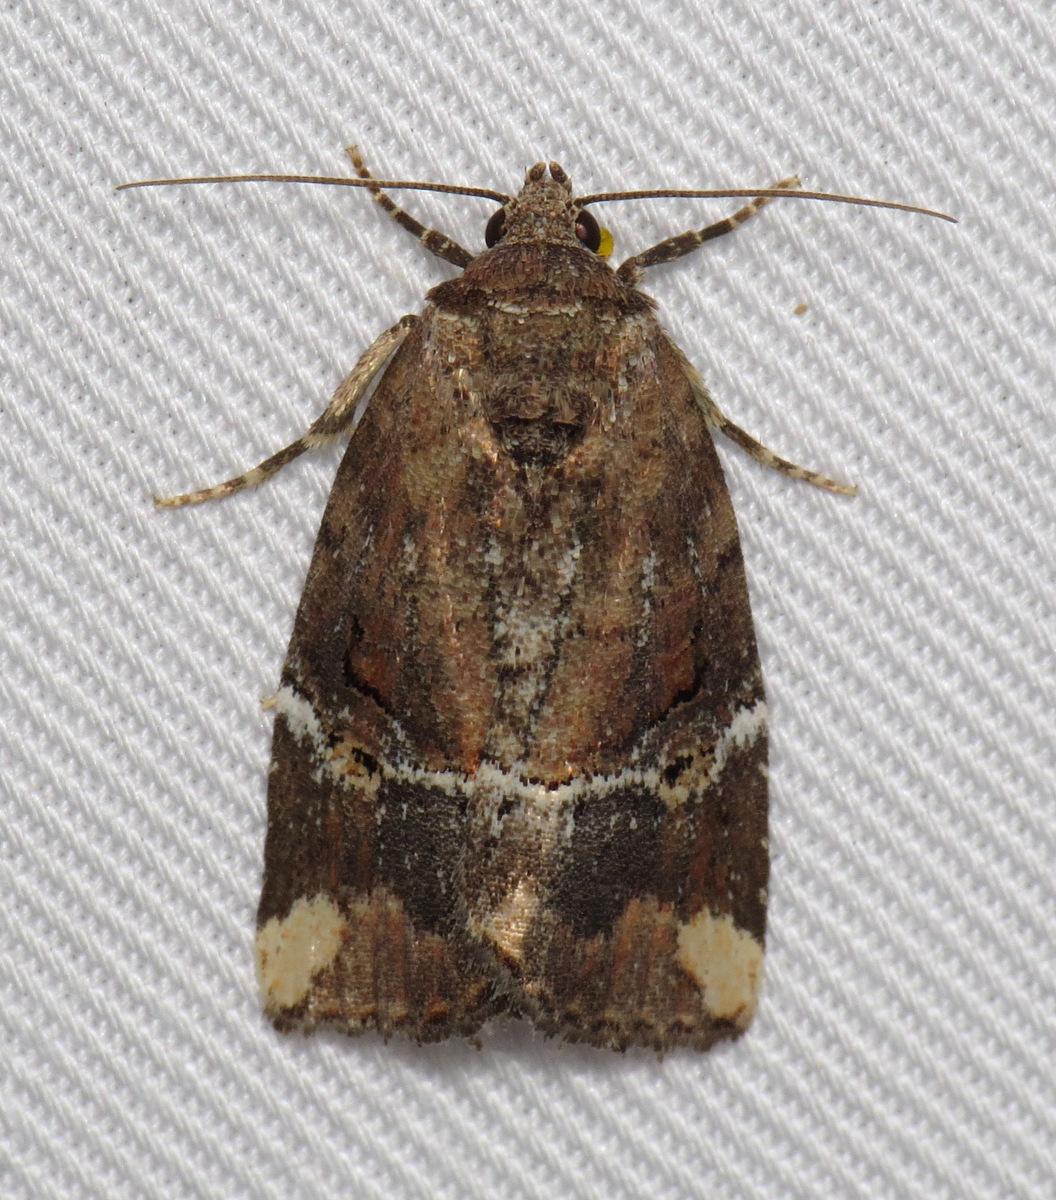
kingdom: Animalia
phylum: Arthropoda
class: Insecta
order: Lepidoptera
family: Noctuidae
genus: Elaphria
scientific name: Elaphria versicolor
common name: Fir harlequin
